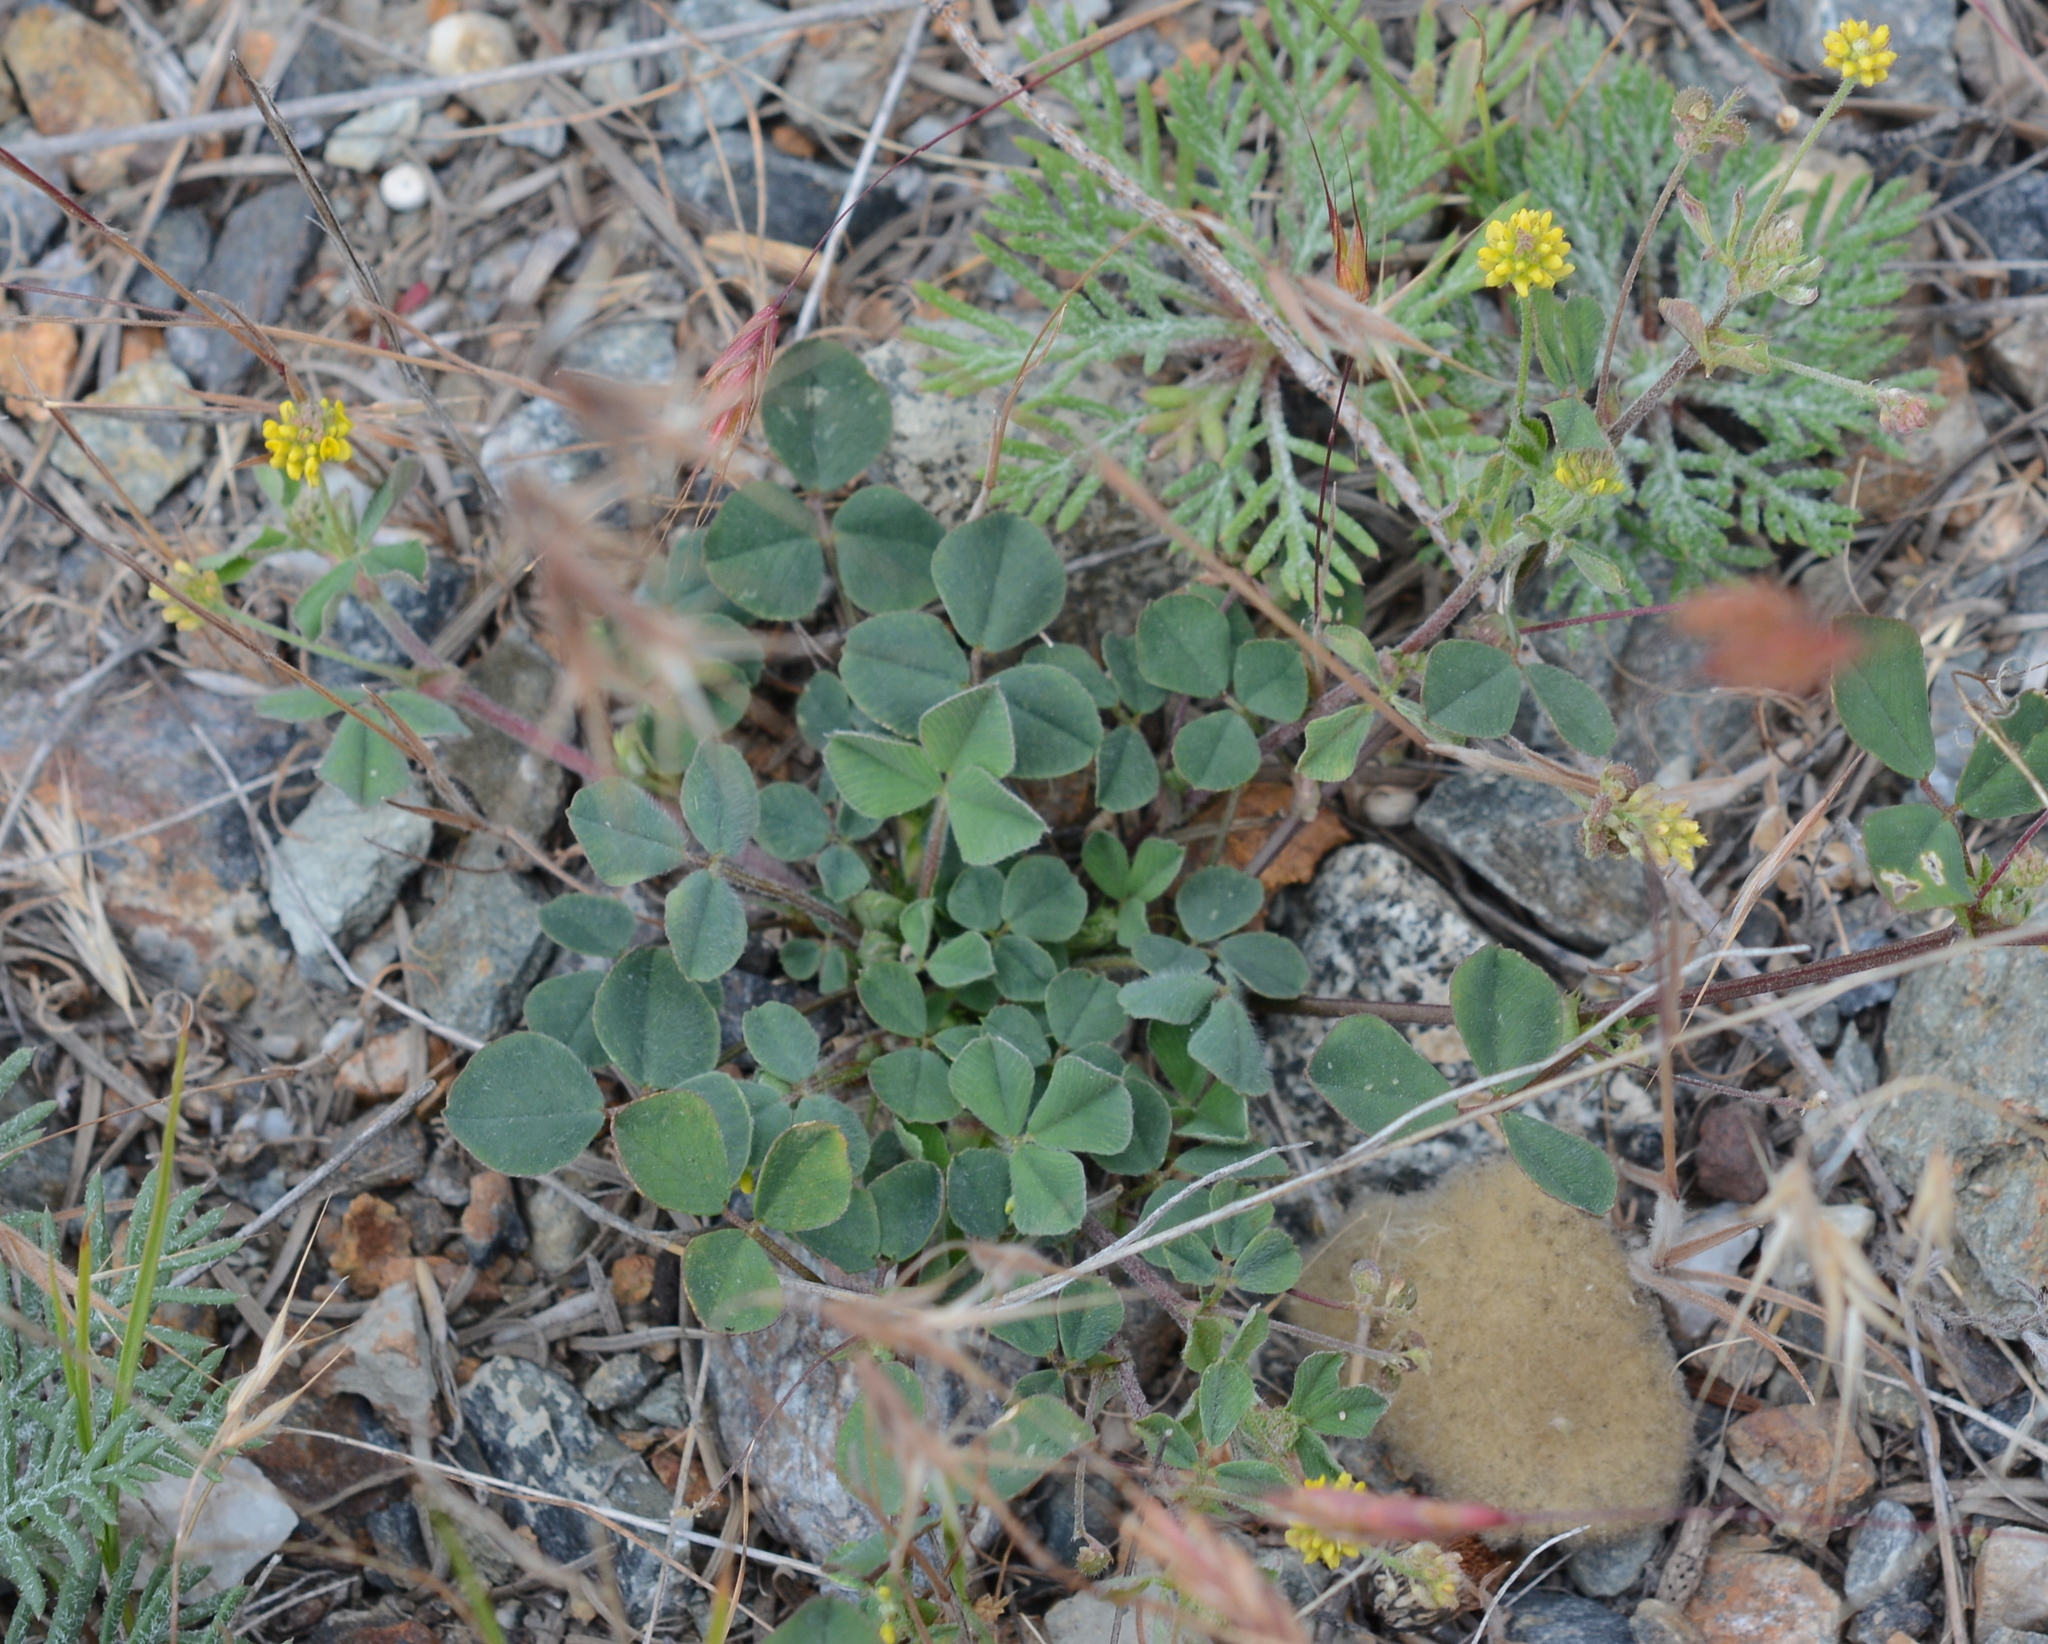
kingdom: Plantae
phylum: Tracheophyta
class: Magnoliopsida
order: Fabales
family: Fabaceae
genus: Medicago
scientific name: Medicago lupulina
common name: Black medick
